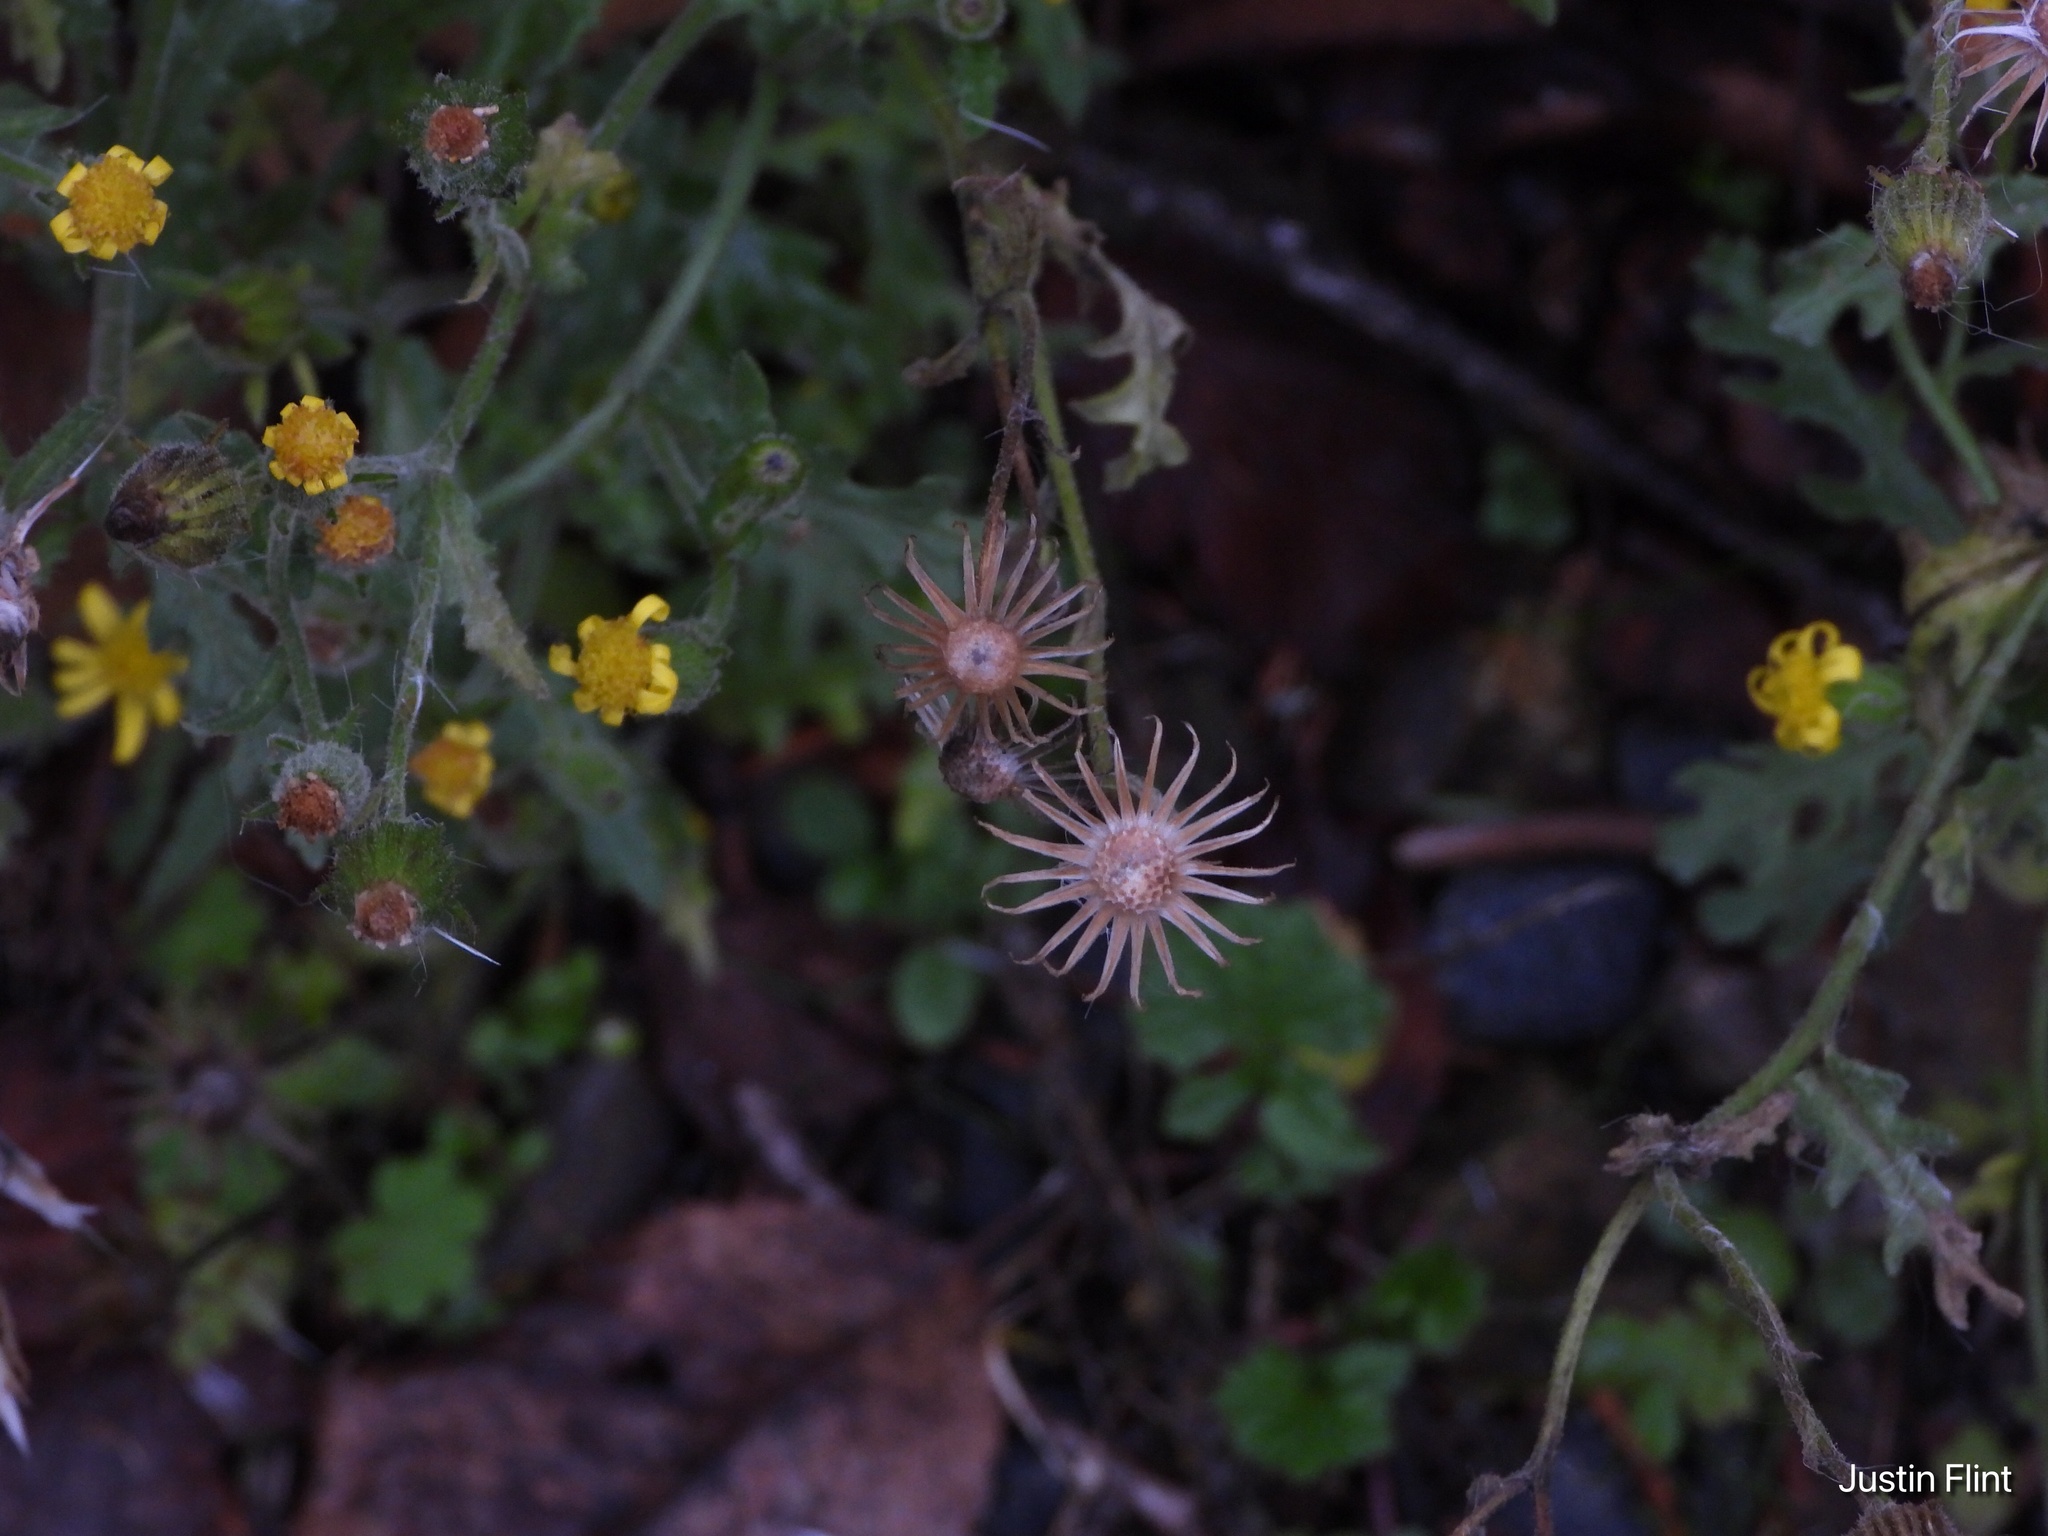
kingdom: Plantae
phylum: Tracheophyta
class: Magnoliopsida
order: Asterales
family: Asteraceae
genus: Senecio
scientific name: Senecio viscosus
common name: Sticky groundsel
